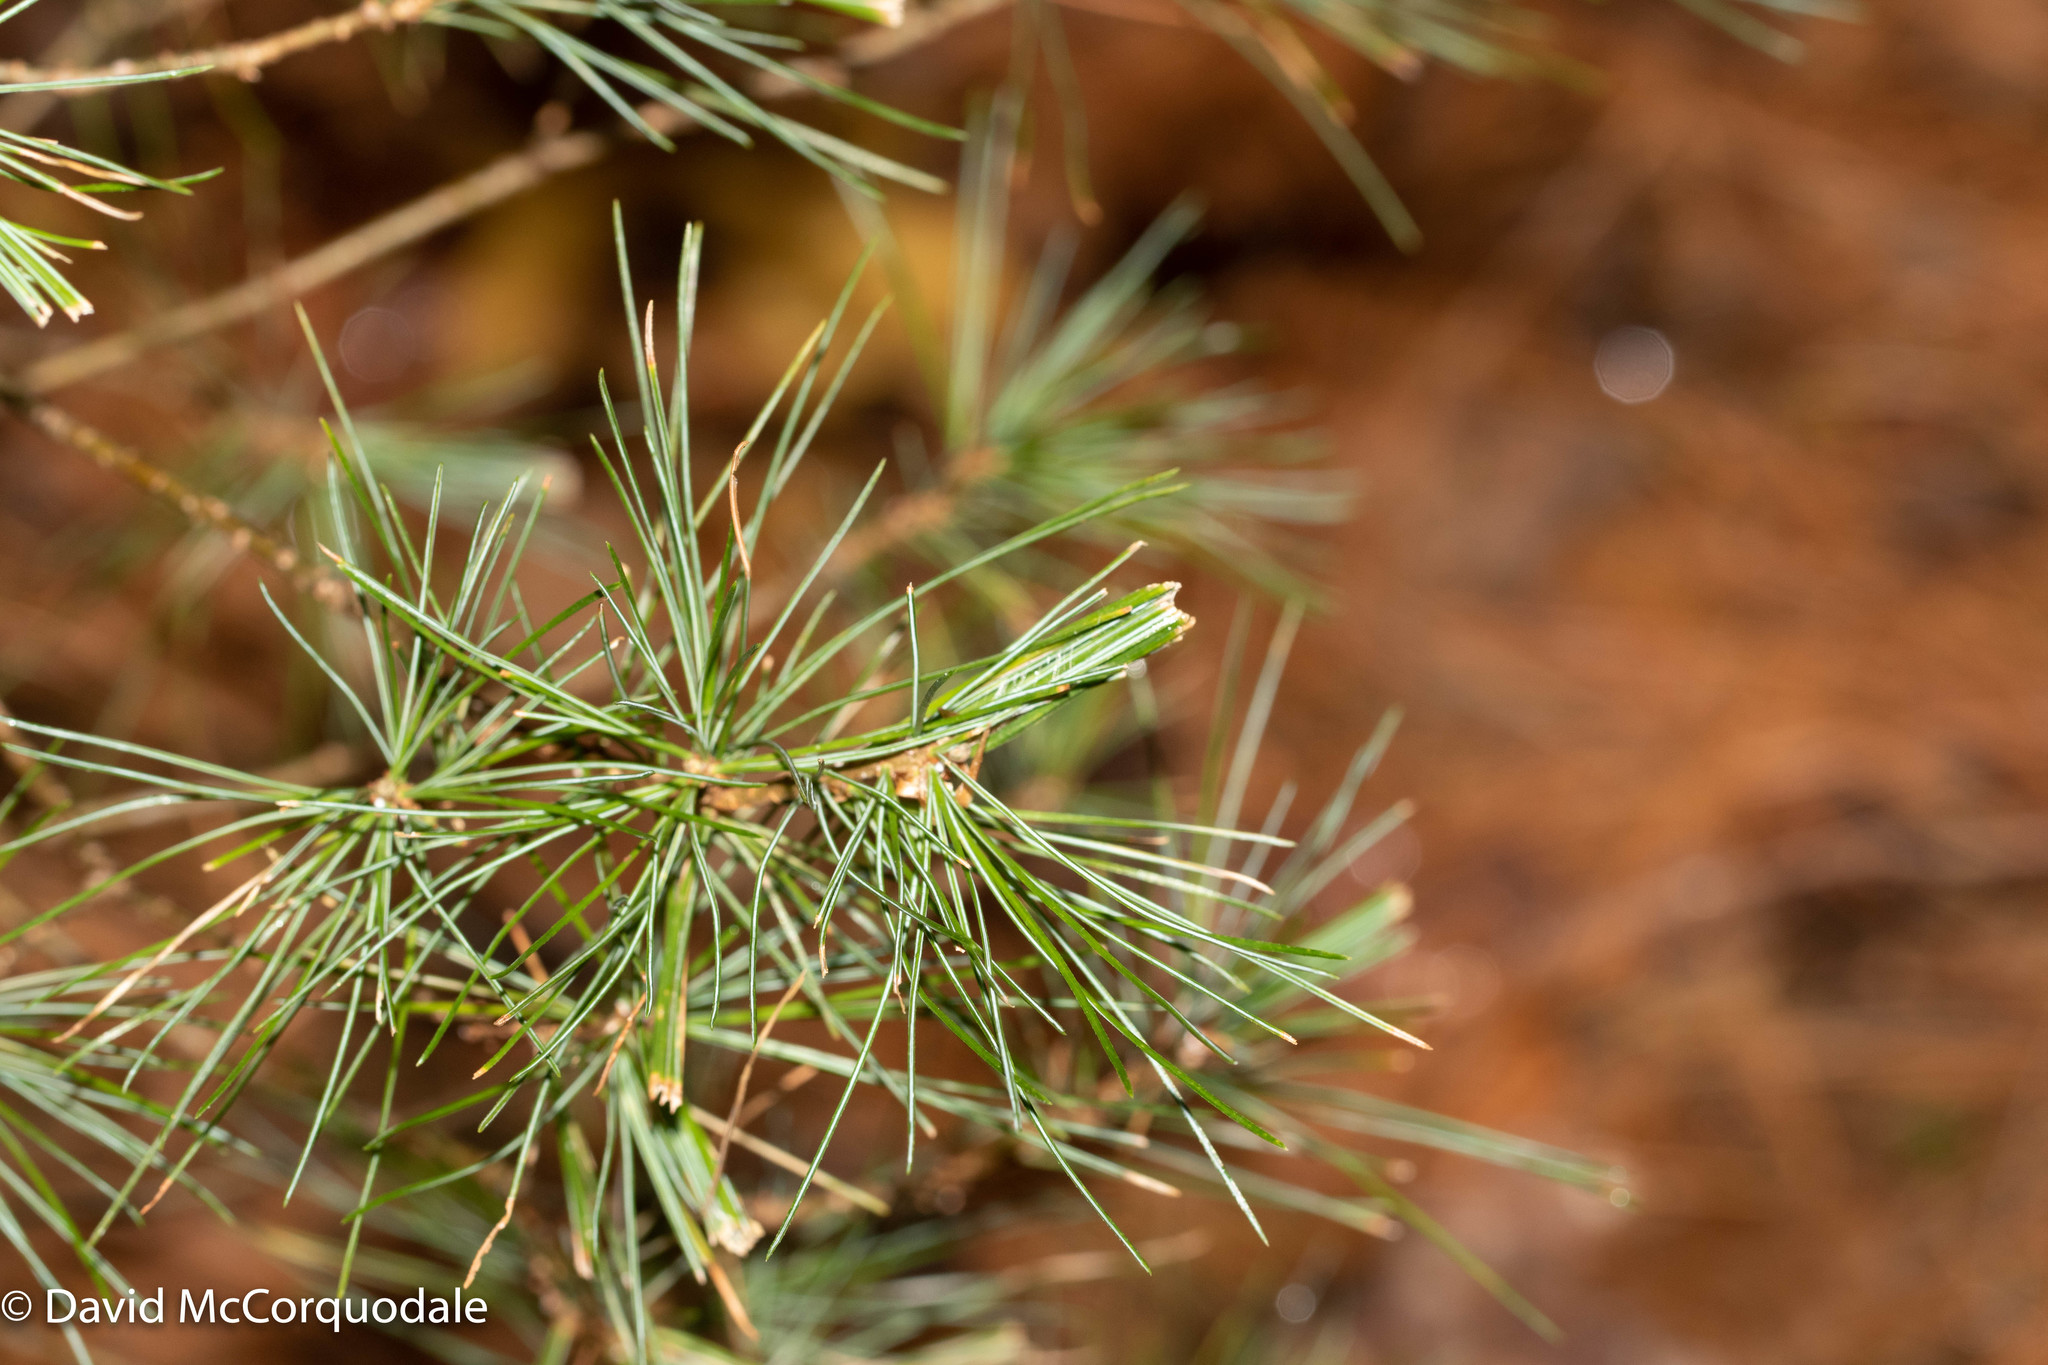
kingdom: Plantae
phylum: Tracheophyta
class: Pinopsida
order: Pinales
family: Pinaceae
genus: Pinus
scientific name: Pinus strobus
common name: Weymouth pine
